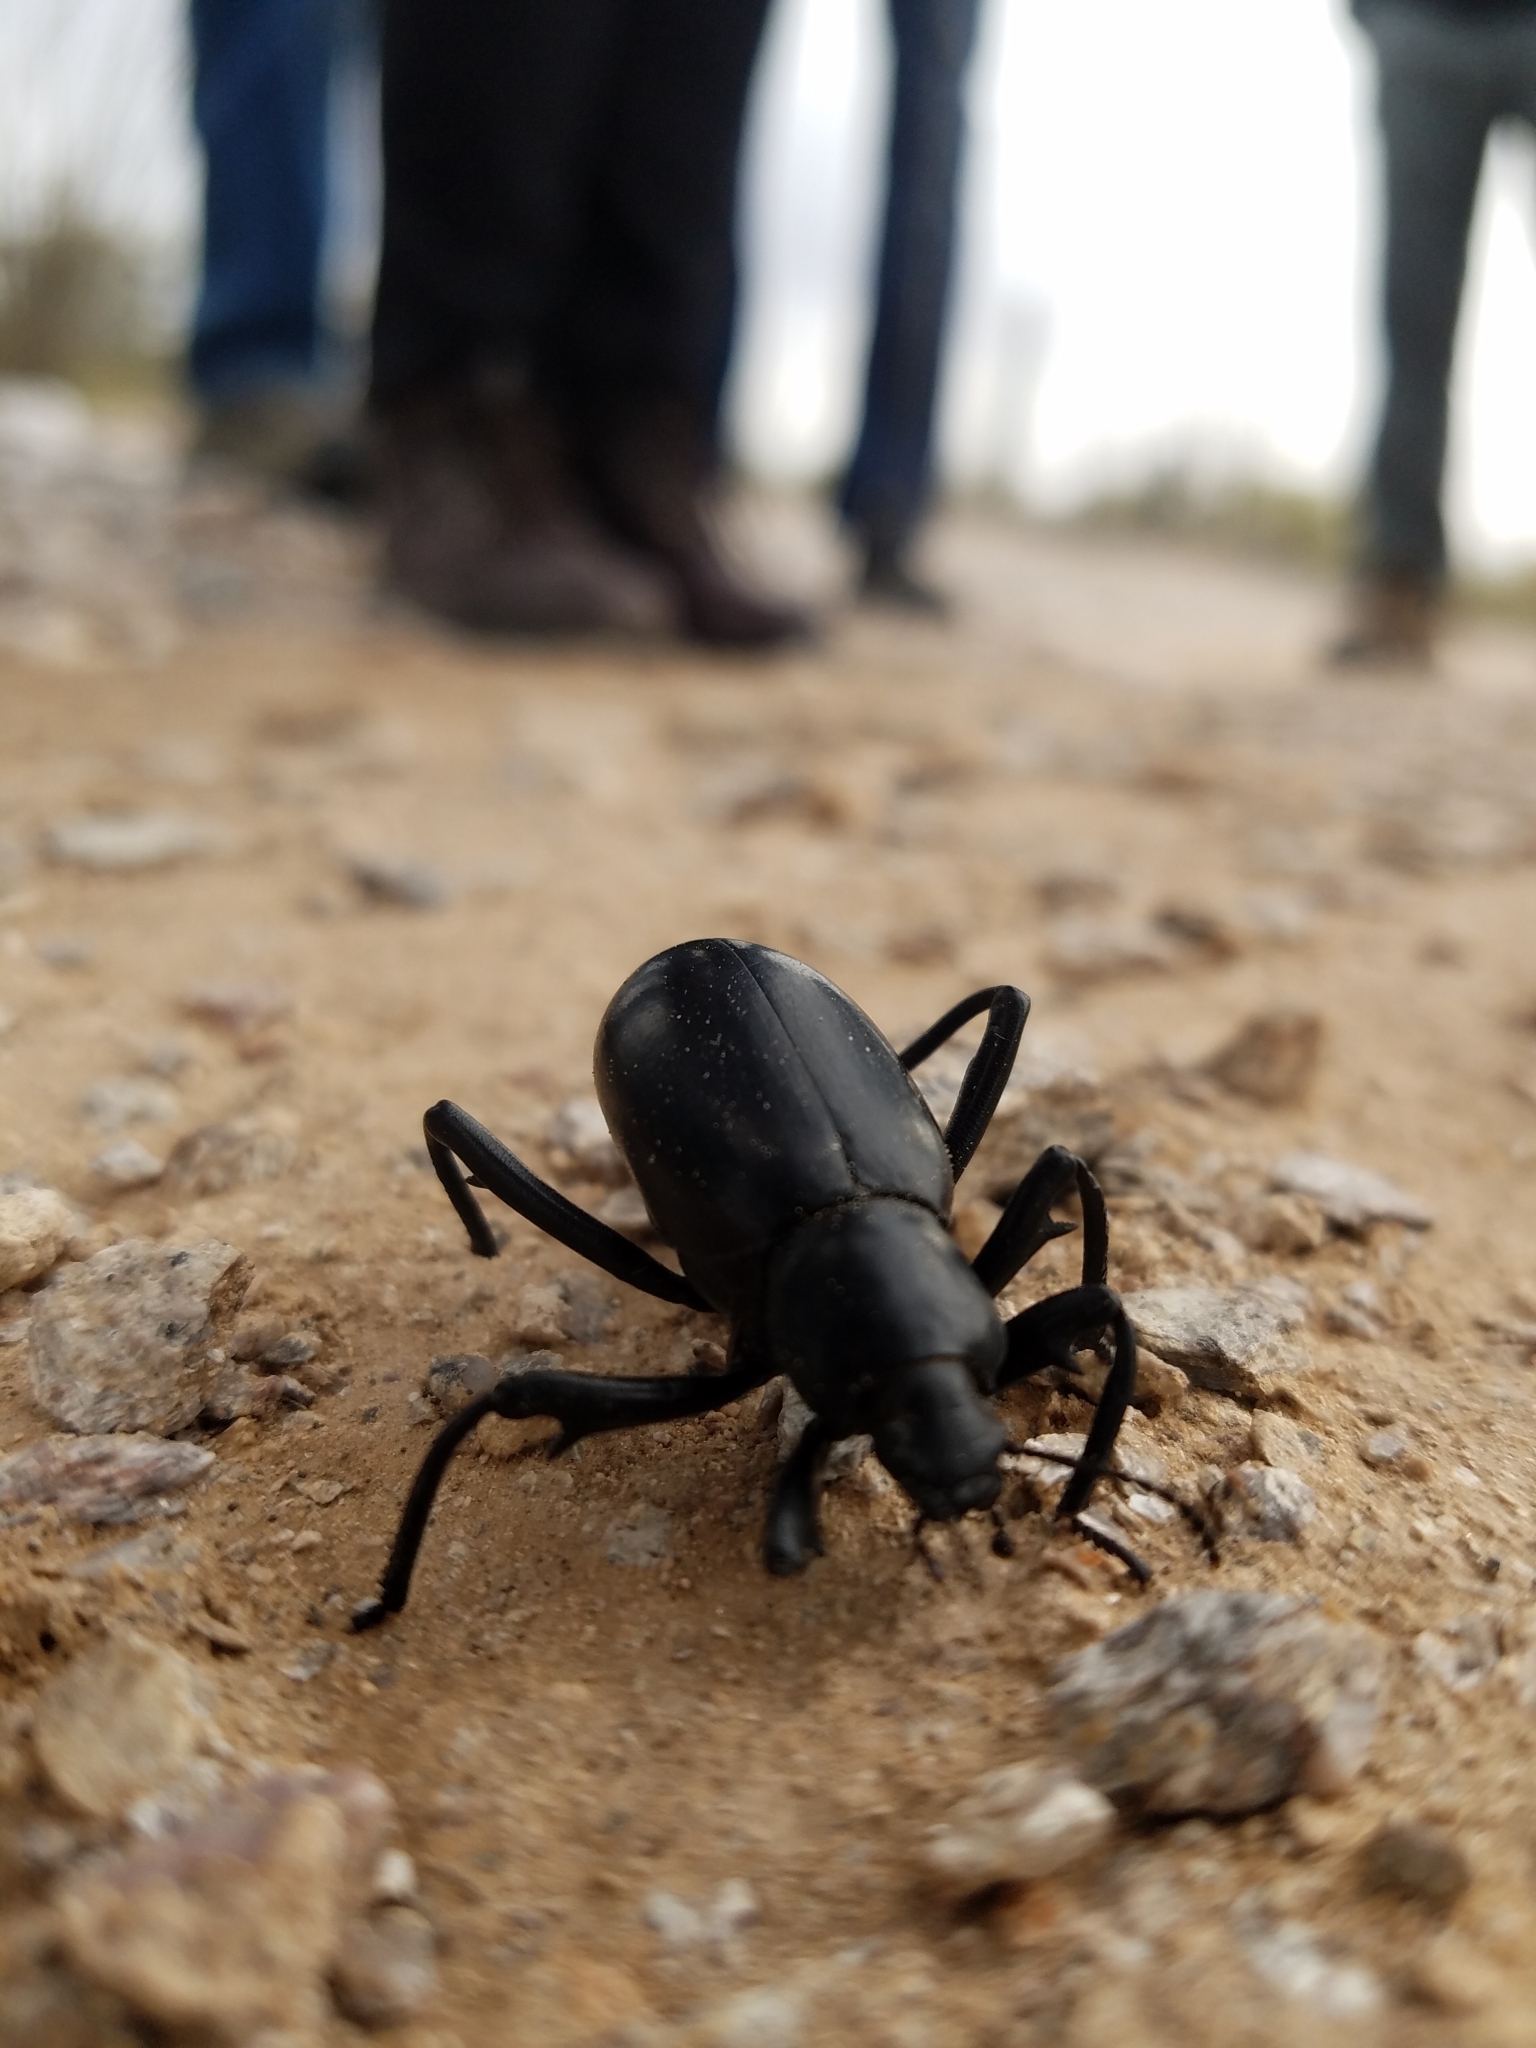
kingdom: Animalia
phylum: Arthropoda
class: Insecta
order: Coleoptera
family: Tenebrionidae
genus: Eleodes
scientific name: Eleodes armata
